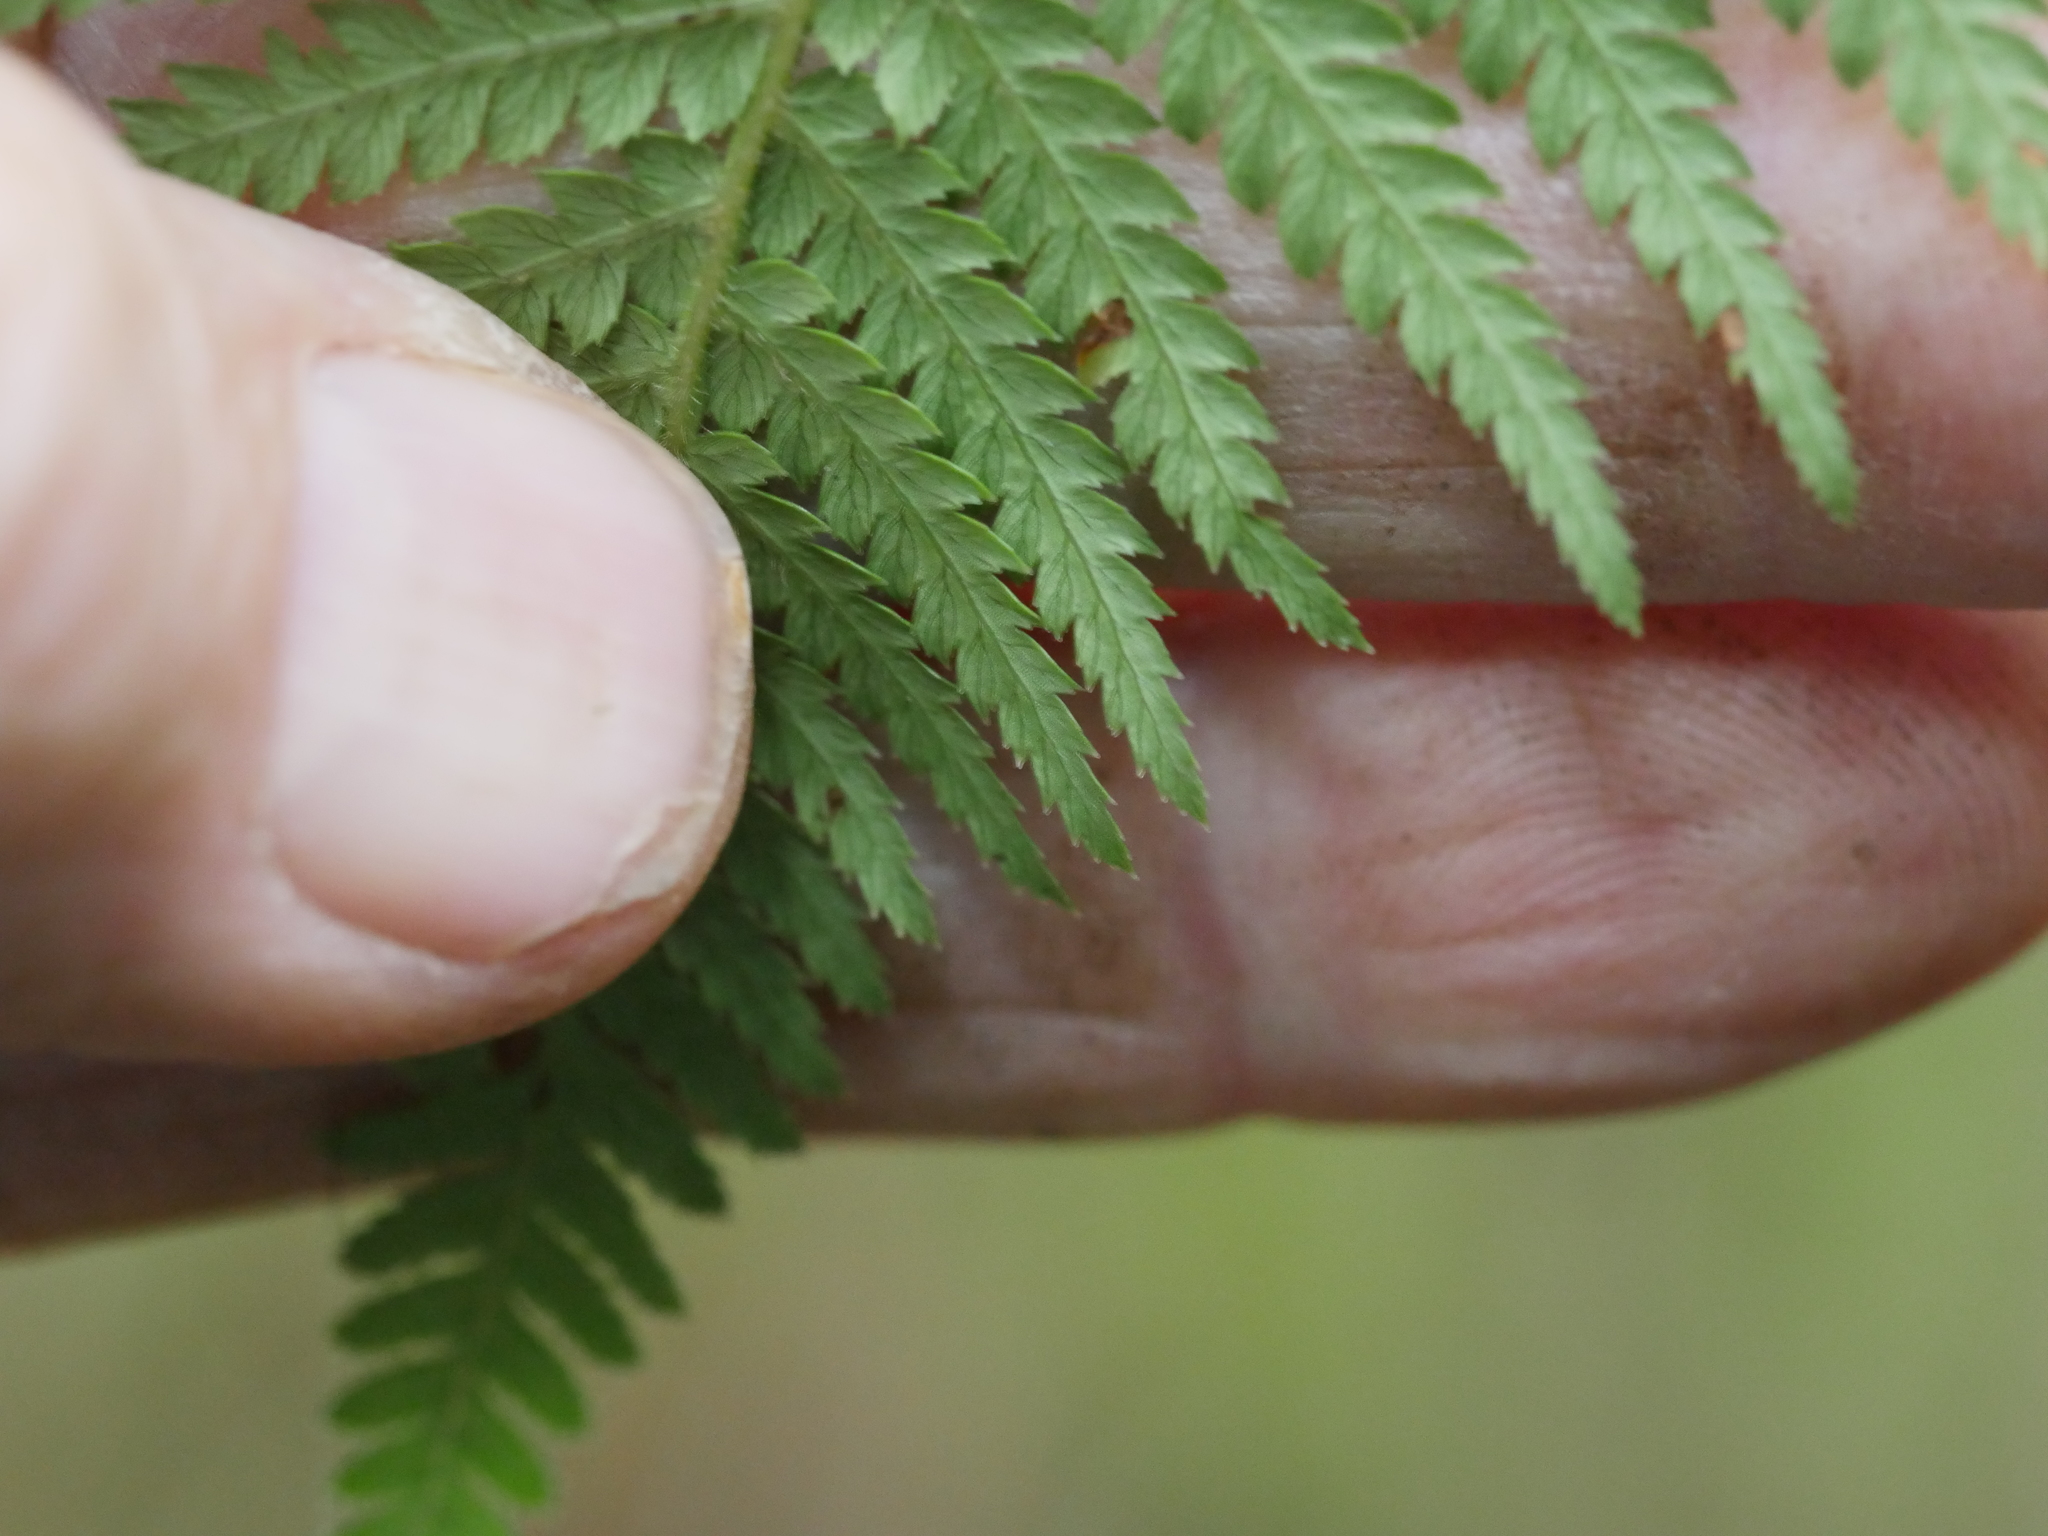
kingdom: Plantae
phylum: Tracheophyta
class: Polypodiopsida
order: Cyatheales
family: Dicksoniaceae
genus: Dicksonia
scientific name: Dicksonia fibrosa
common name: Golden tree fern
